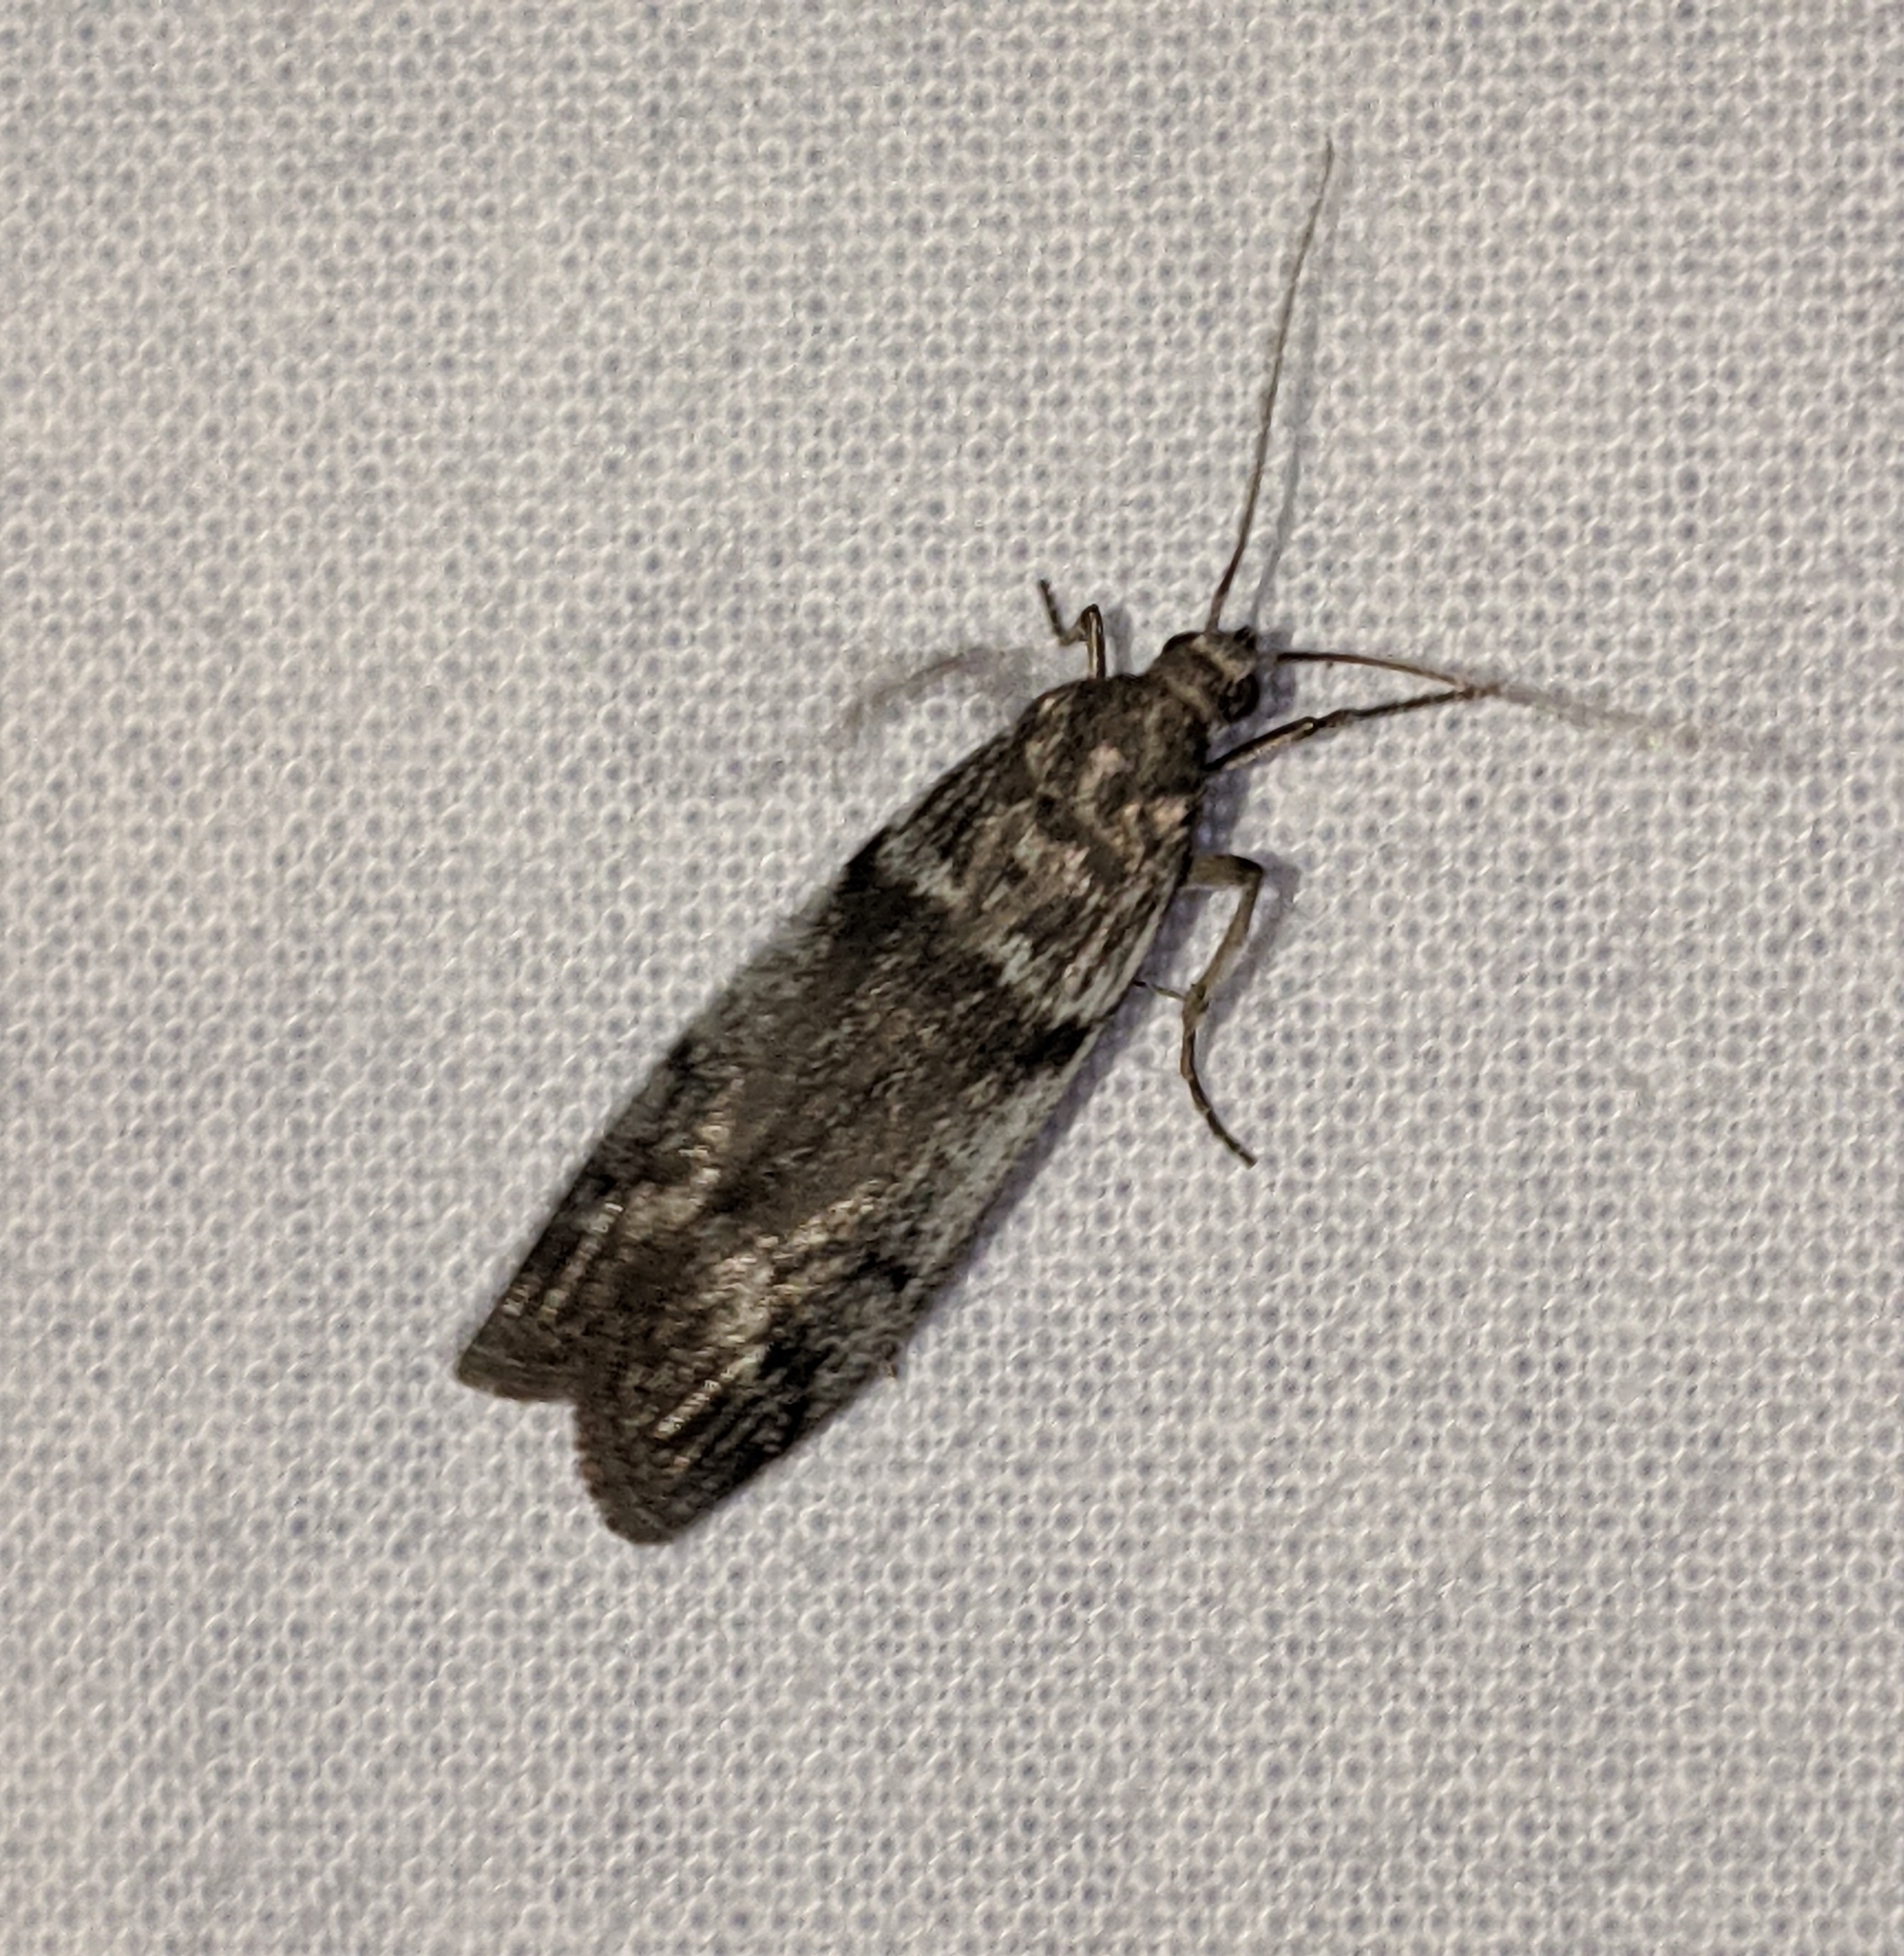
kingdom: Animalia
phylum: Arthropoda
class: Insecta
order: Lepidoptera
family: Pyralidae
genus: Myelopsis
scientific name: Myelopsis subtetricella
